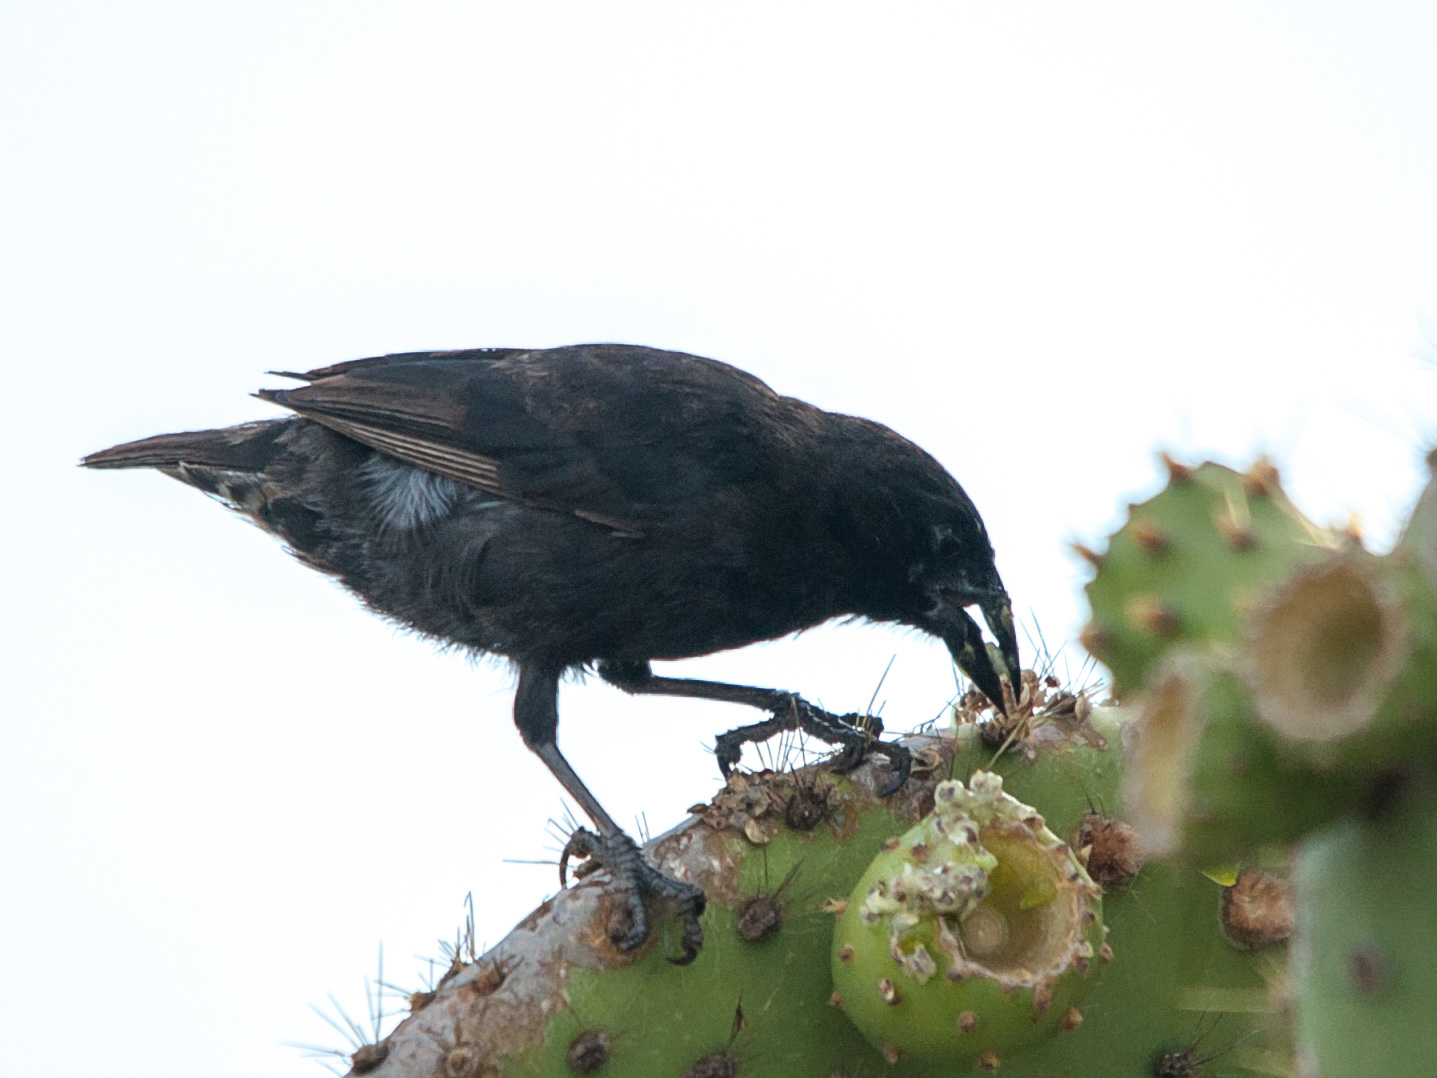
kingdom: Animalia
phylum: Chordata
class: Aves
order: Passeriformes
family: Thraupidae
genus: Geospiza
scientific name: Geospiza scandens
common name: Common cactus-finch
